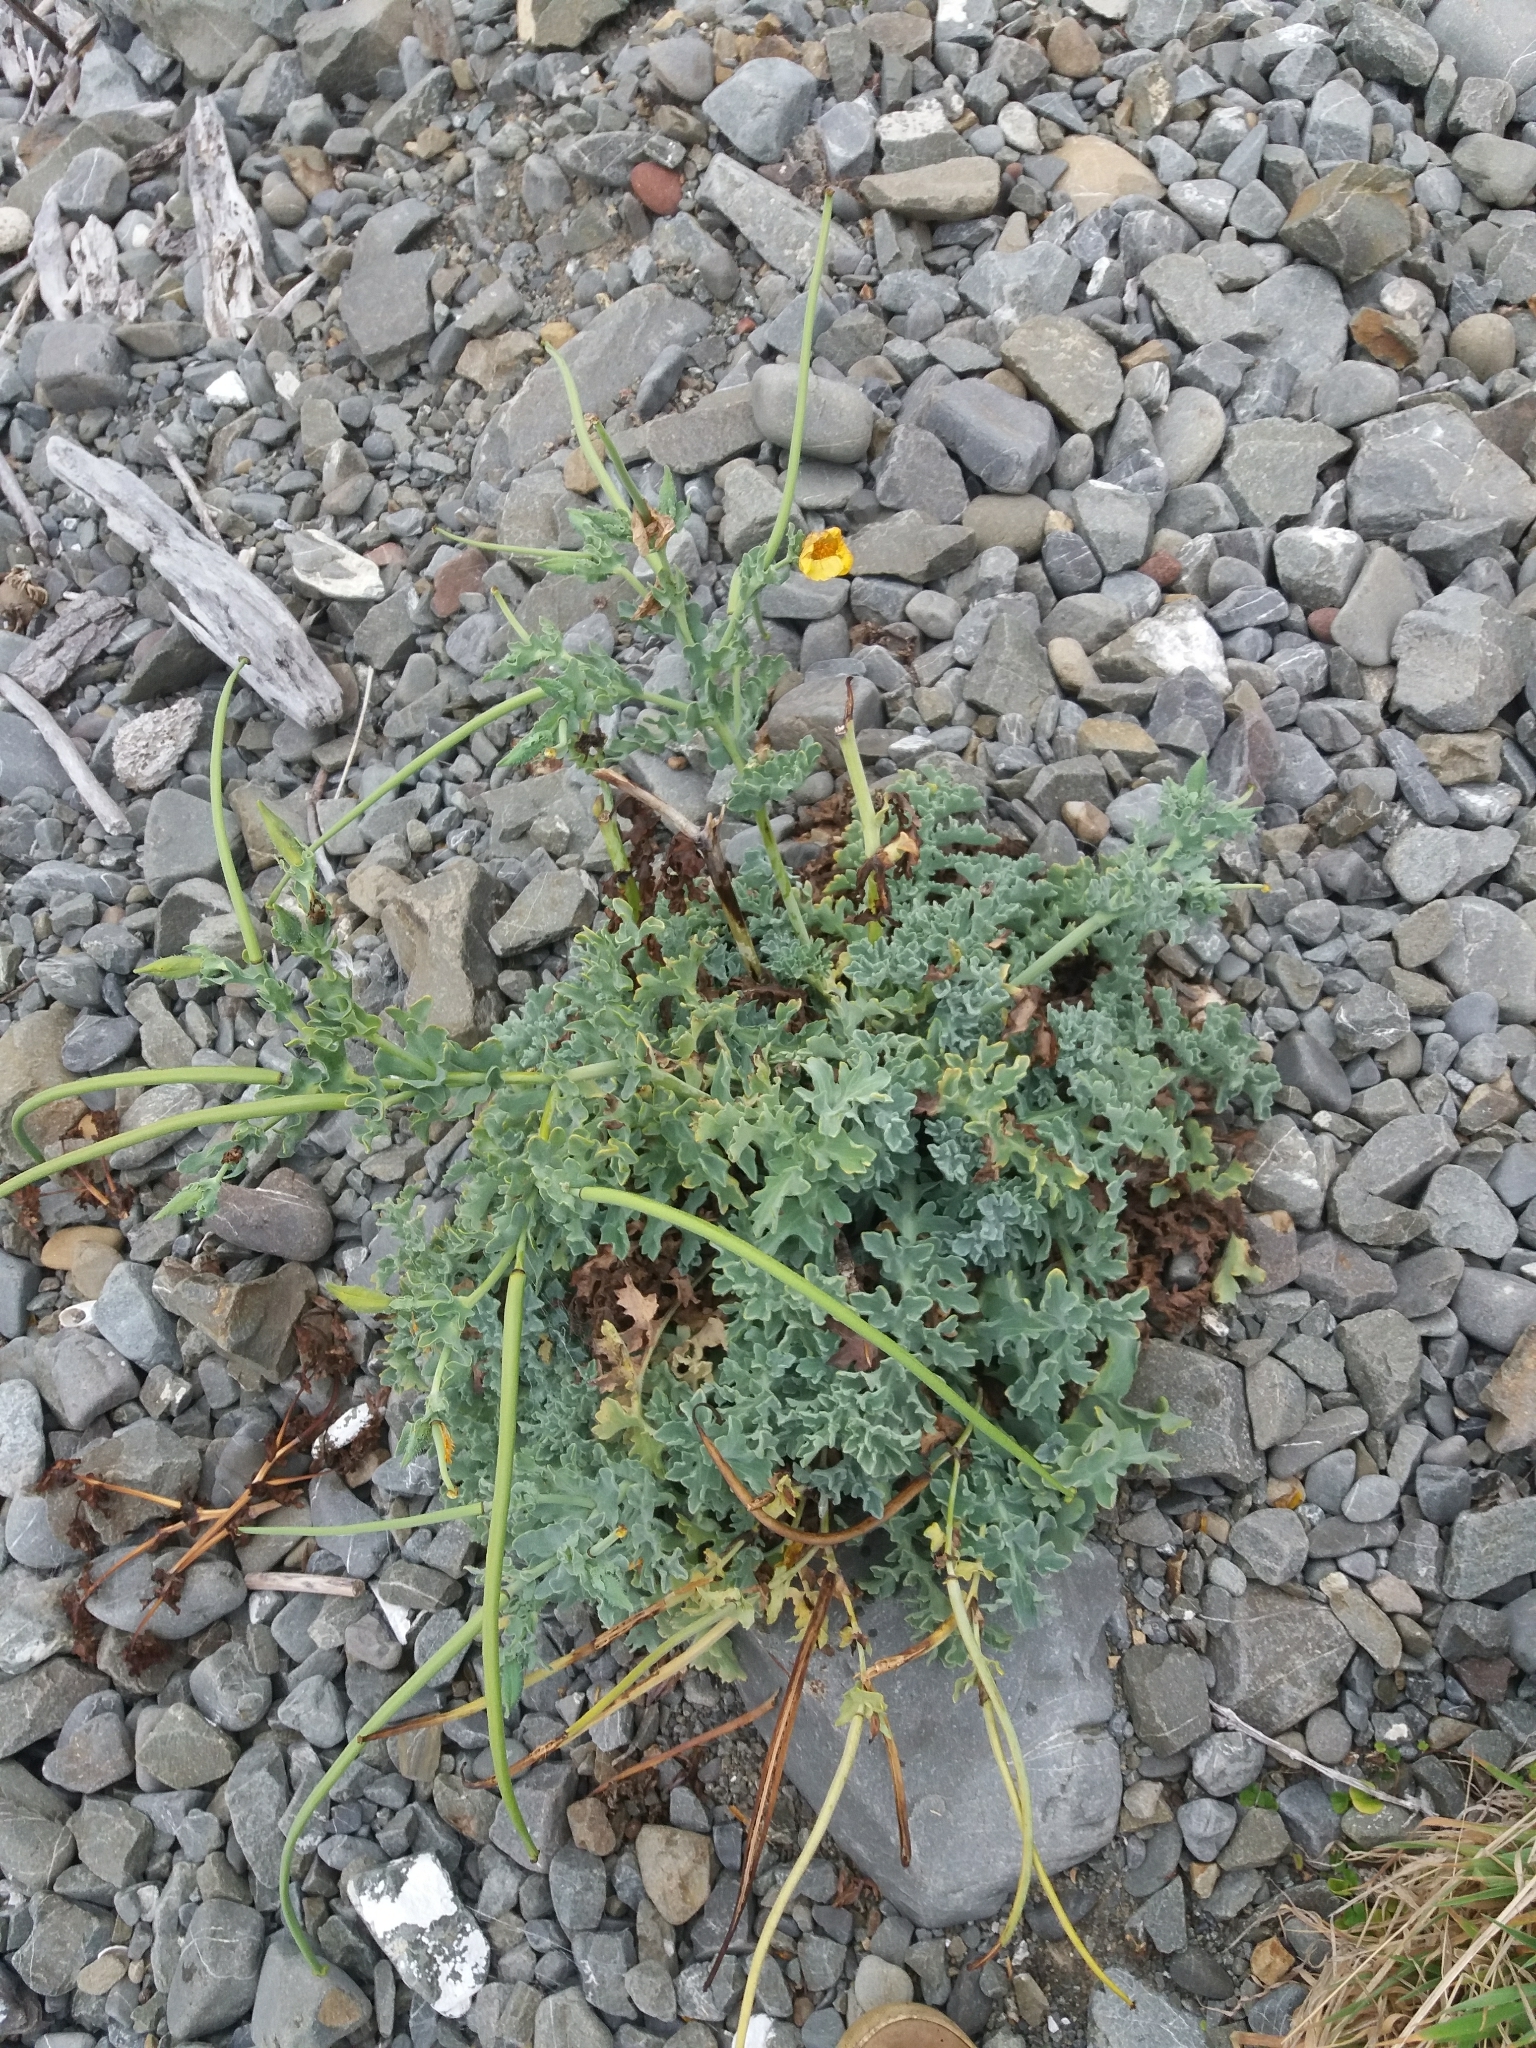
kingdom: Plantae
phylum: Tracheophyta
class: Magnoliopsida
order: Ranunculales
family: Papaveraceae
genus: Glaucium
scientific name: Glaucium flavum
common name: Yellow horned-poppy
